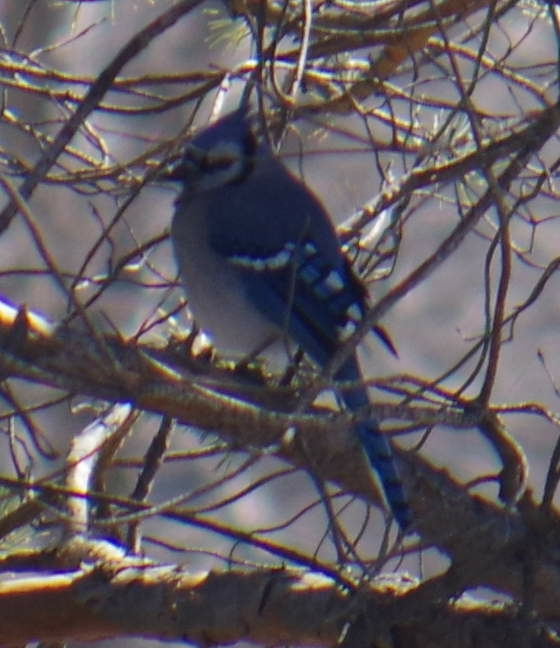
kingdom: Animalia
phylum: Chordata
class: Aves
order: Passeriformes
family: Corvidae
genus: Cyanocitta
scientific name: Cyanocitta cristata
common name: Blue jay
